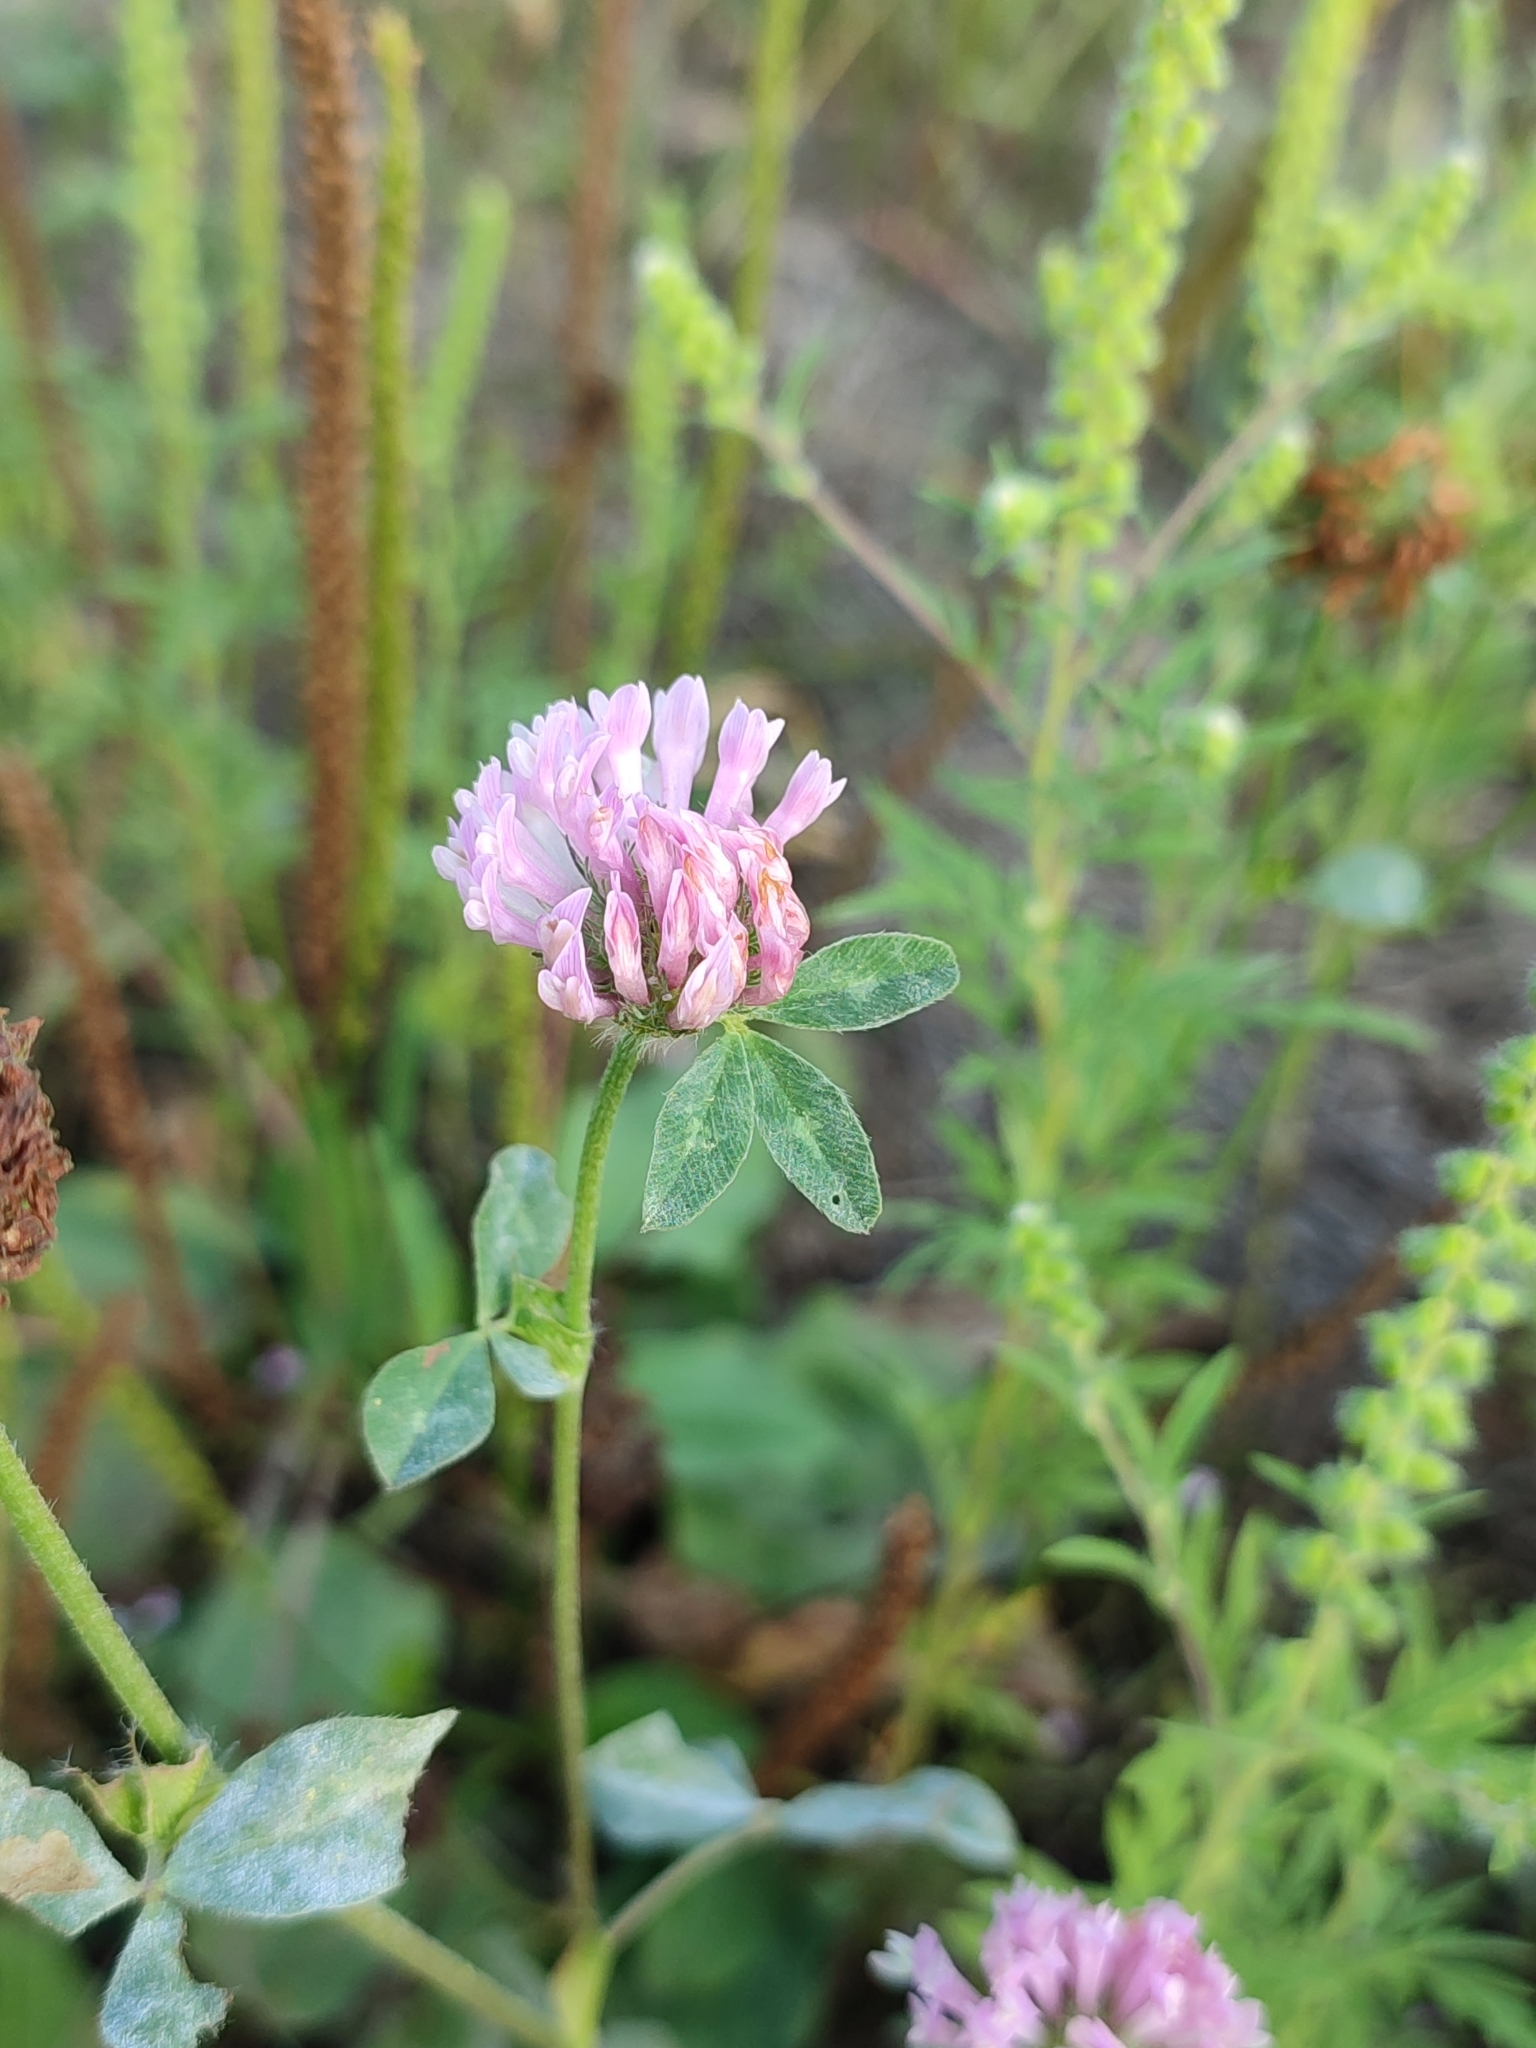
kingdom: Plantae
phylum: Tracheophyta
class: Magnoliopsida
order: Fabales
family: Fabaceae
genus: Trifolium
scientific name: Trifolium pratense
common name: Red clover
